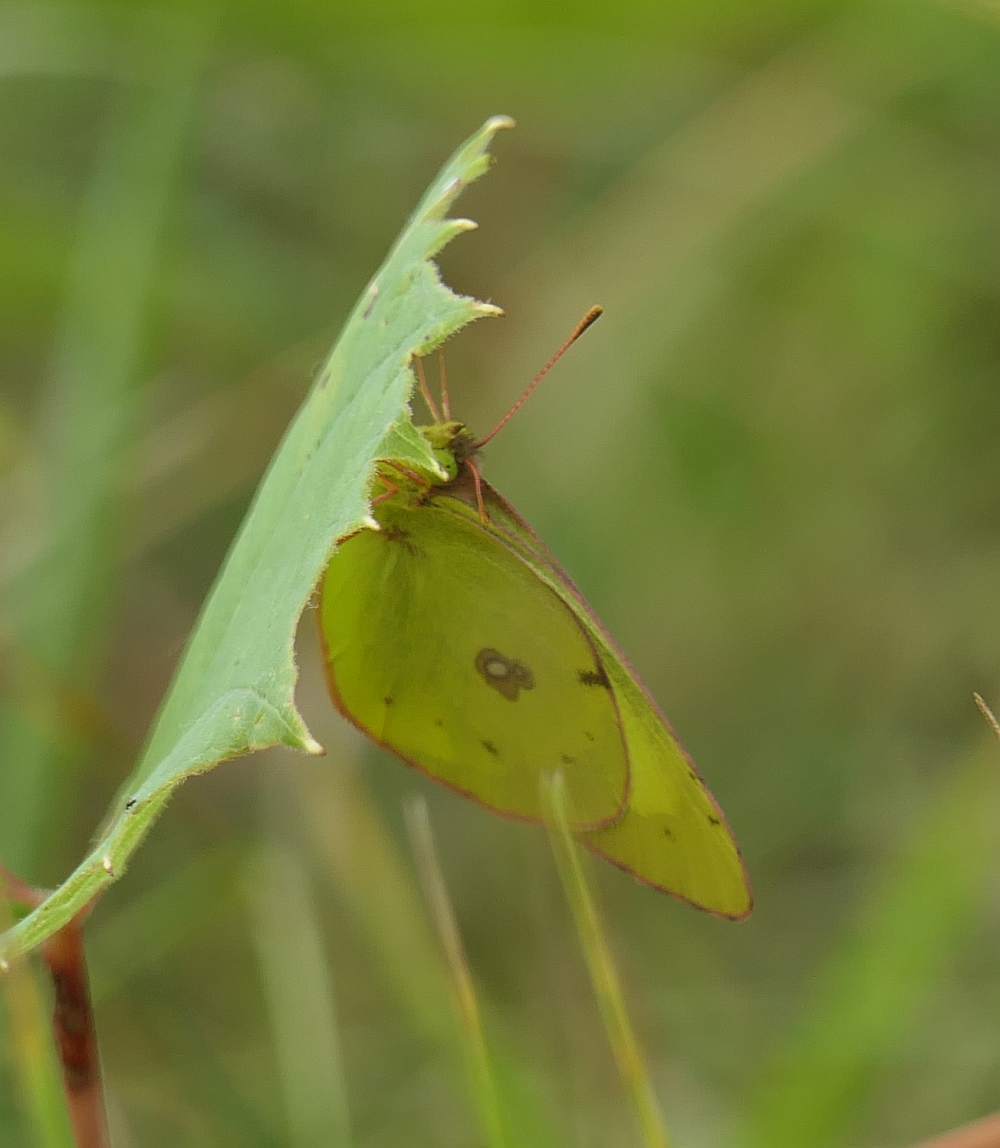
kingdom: Animalia
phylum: Arthropoda
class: Insecta
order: Lepidoptera
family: Pieridae
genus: Colias
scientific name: Colias philodice
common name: Clouded sulphur
